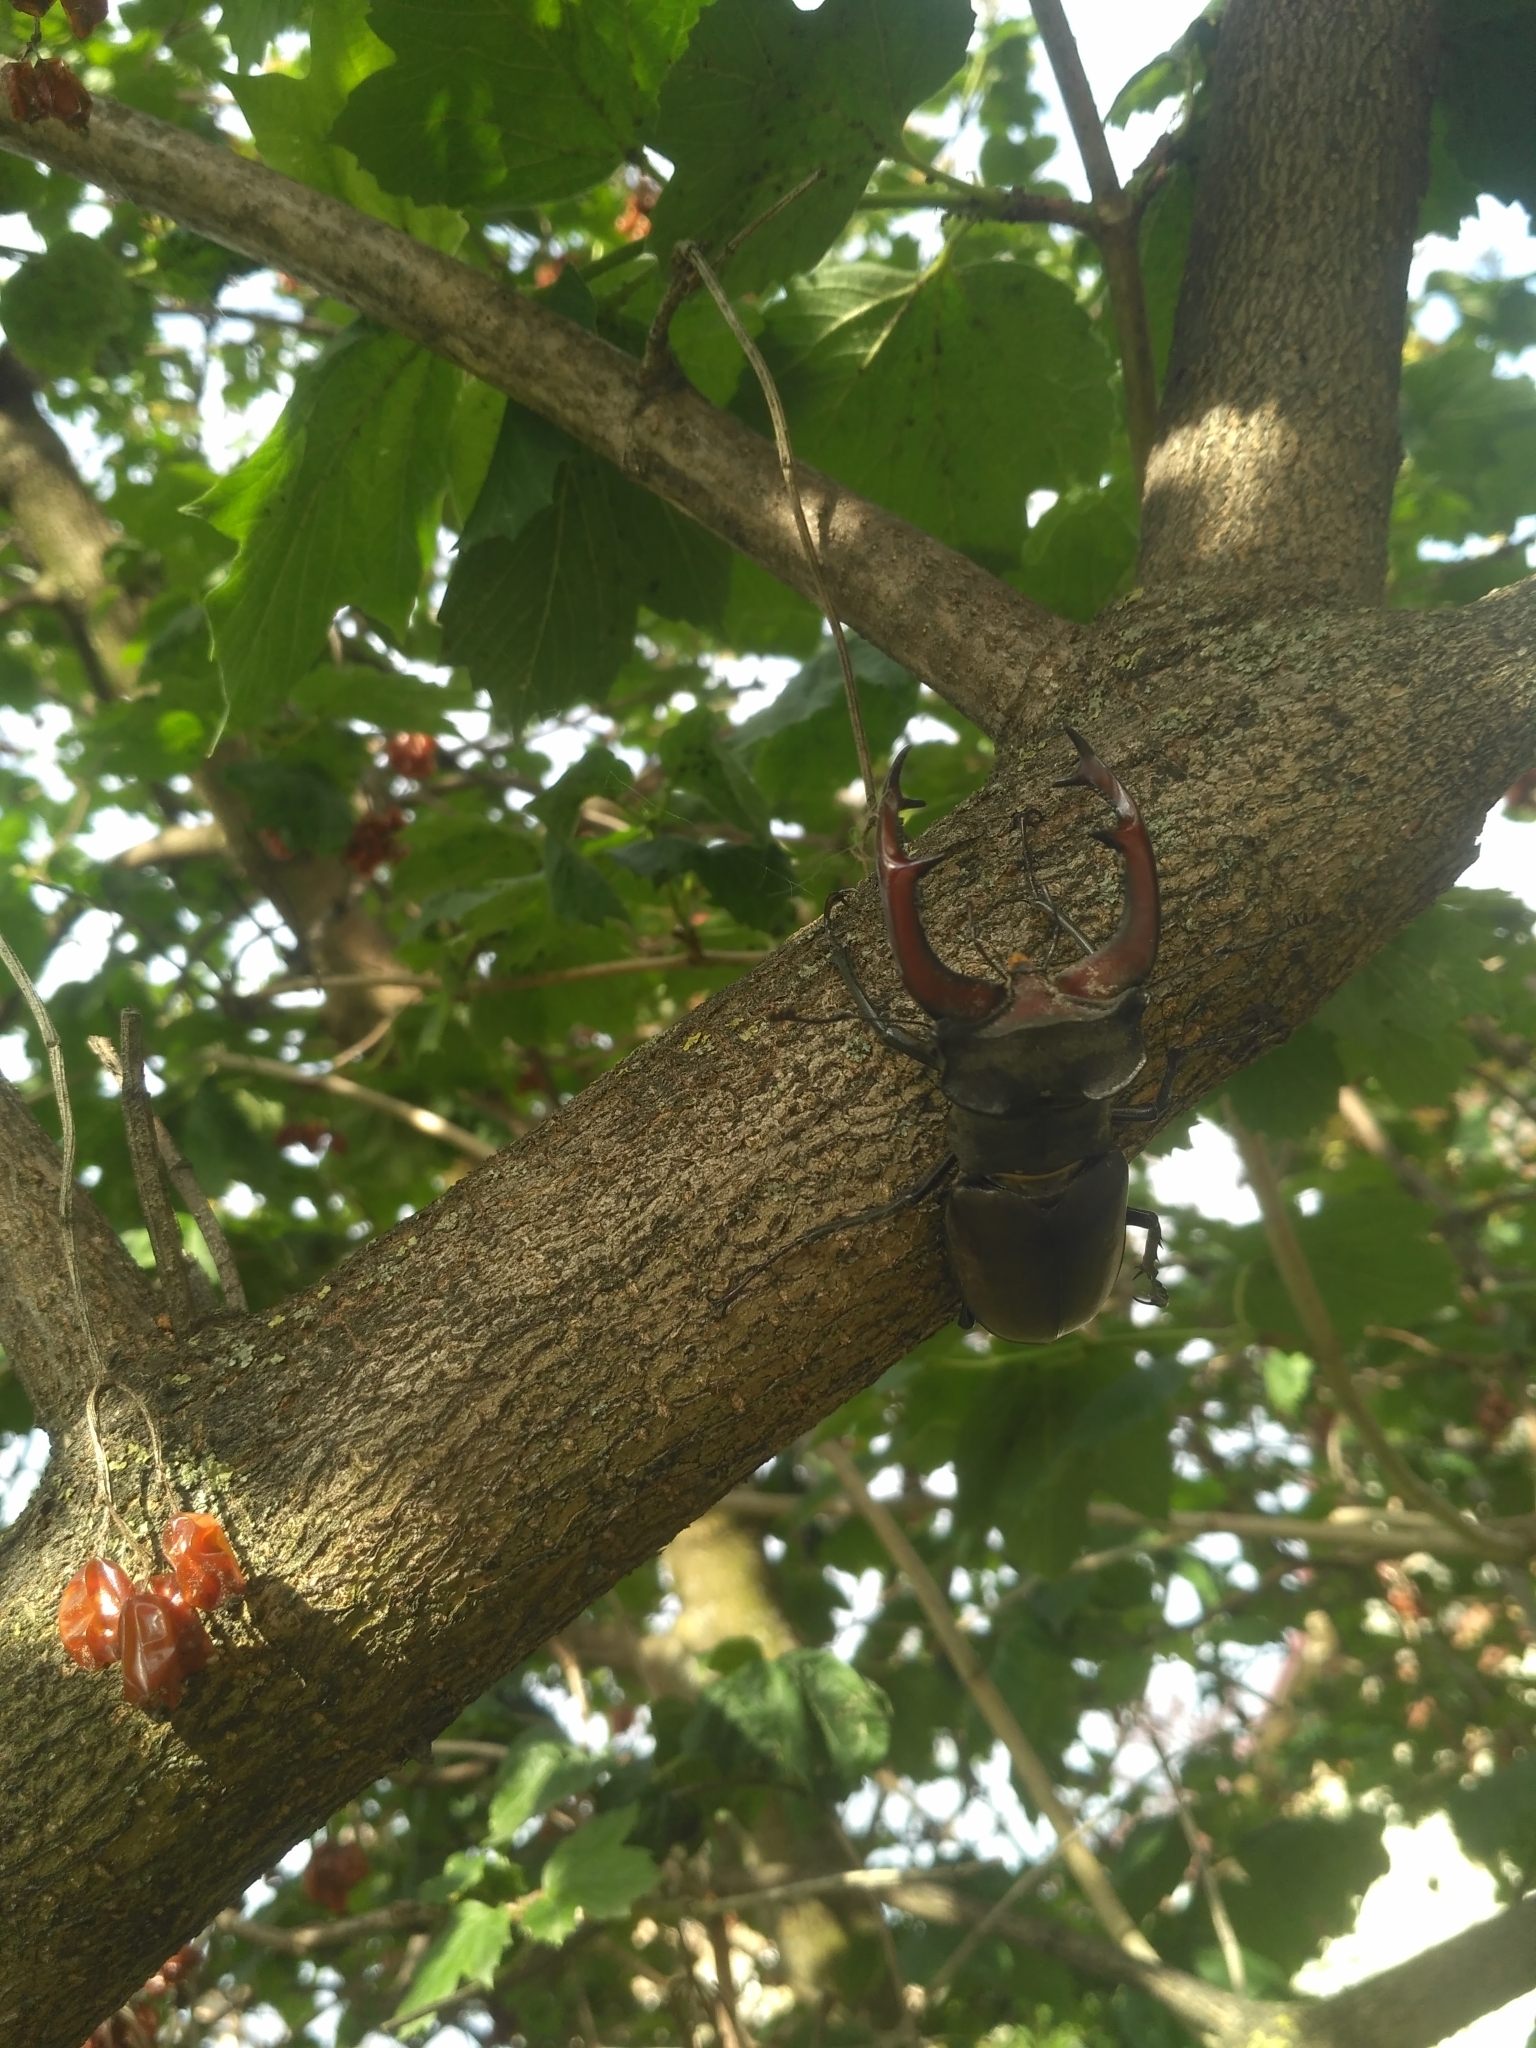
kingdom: Animalia
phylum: Arthropoda
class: Insecta
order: Coleoptera
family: Lucanidae
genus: Lucanus
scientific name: Lucanus cervus
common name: Stag beetle
